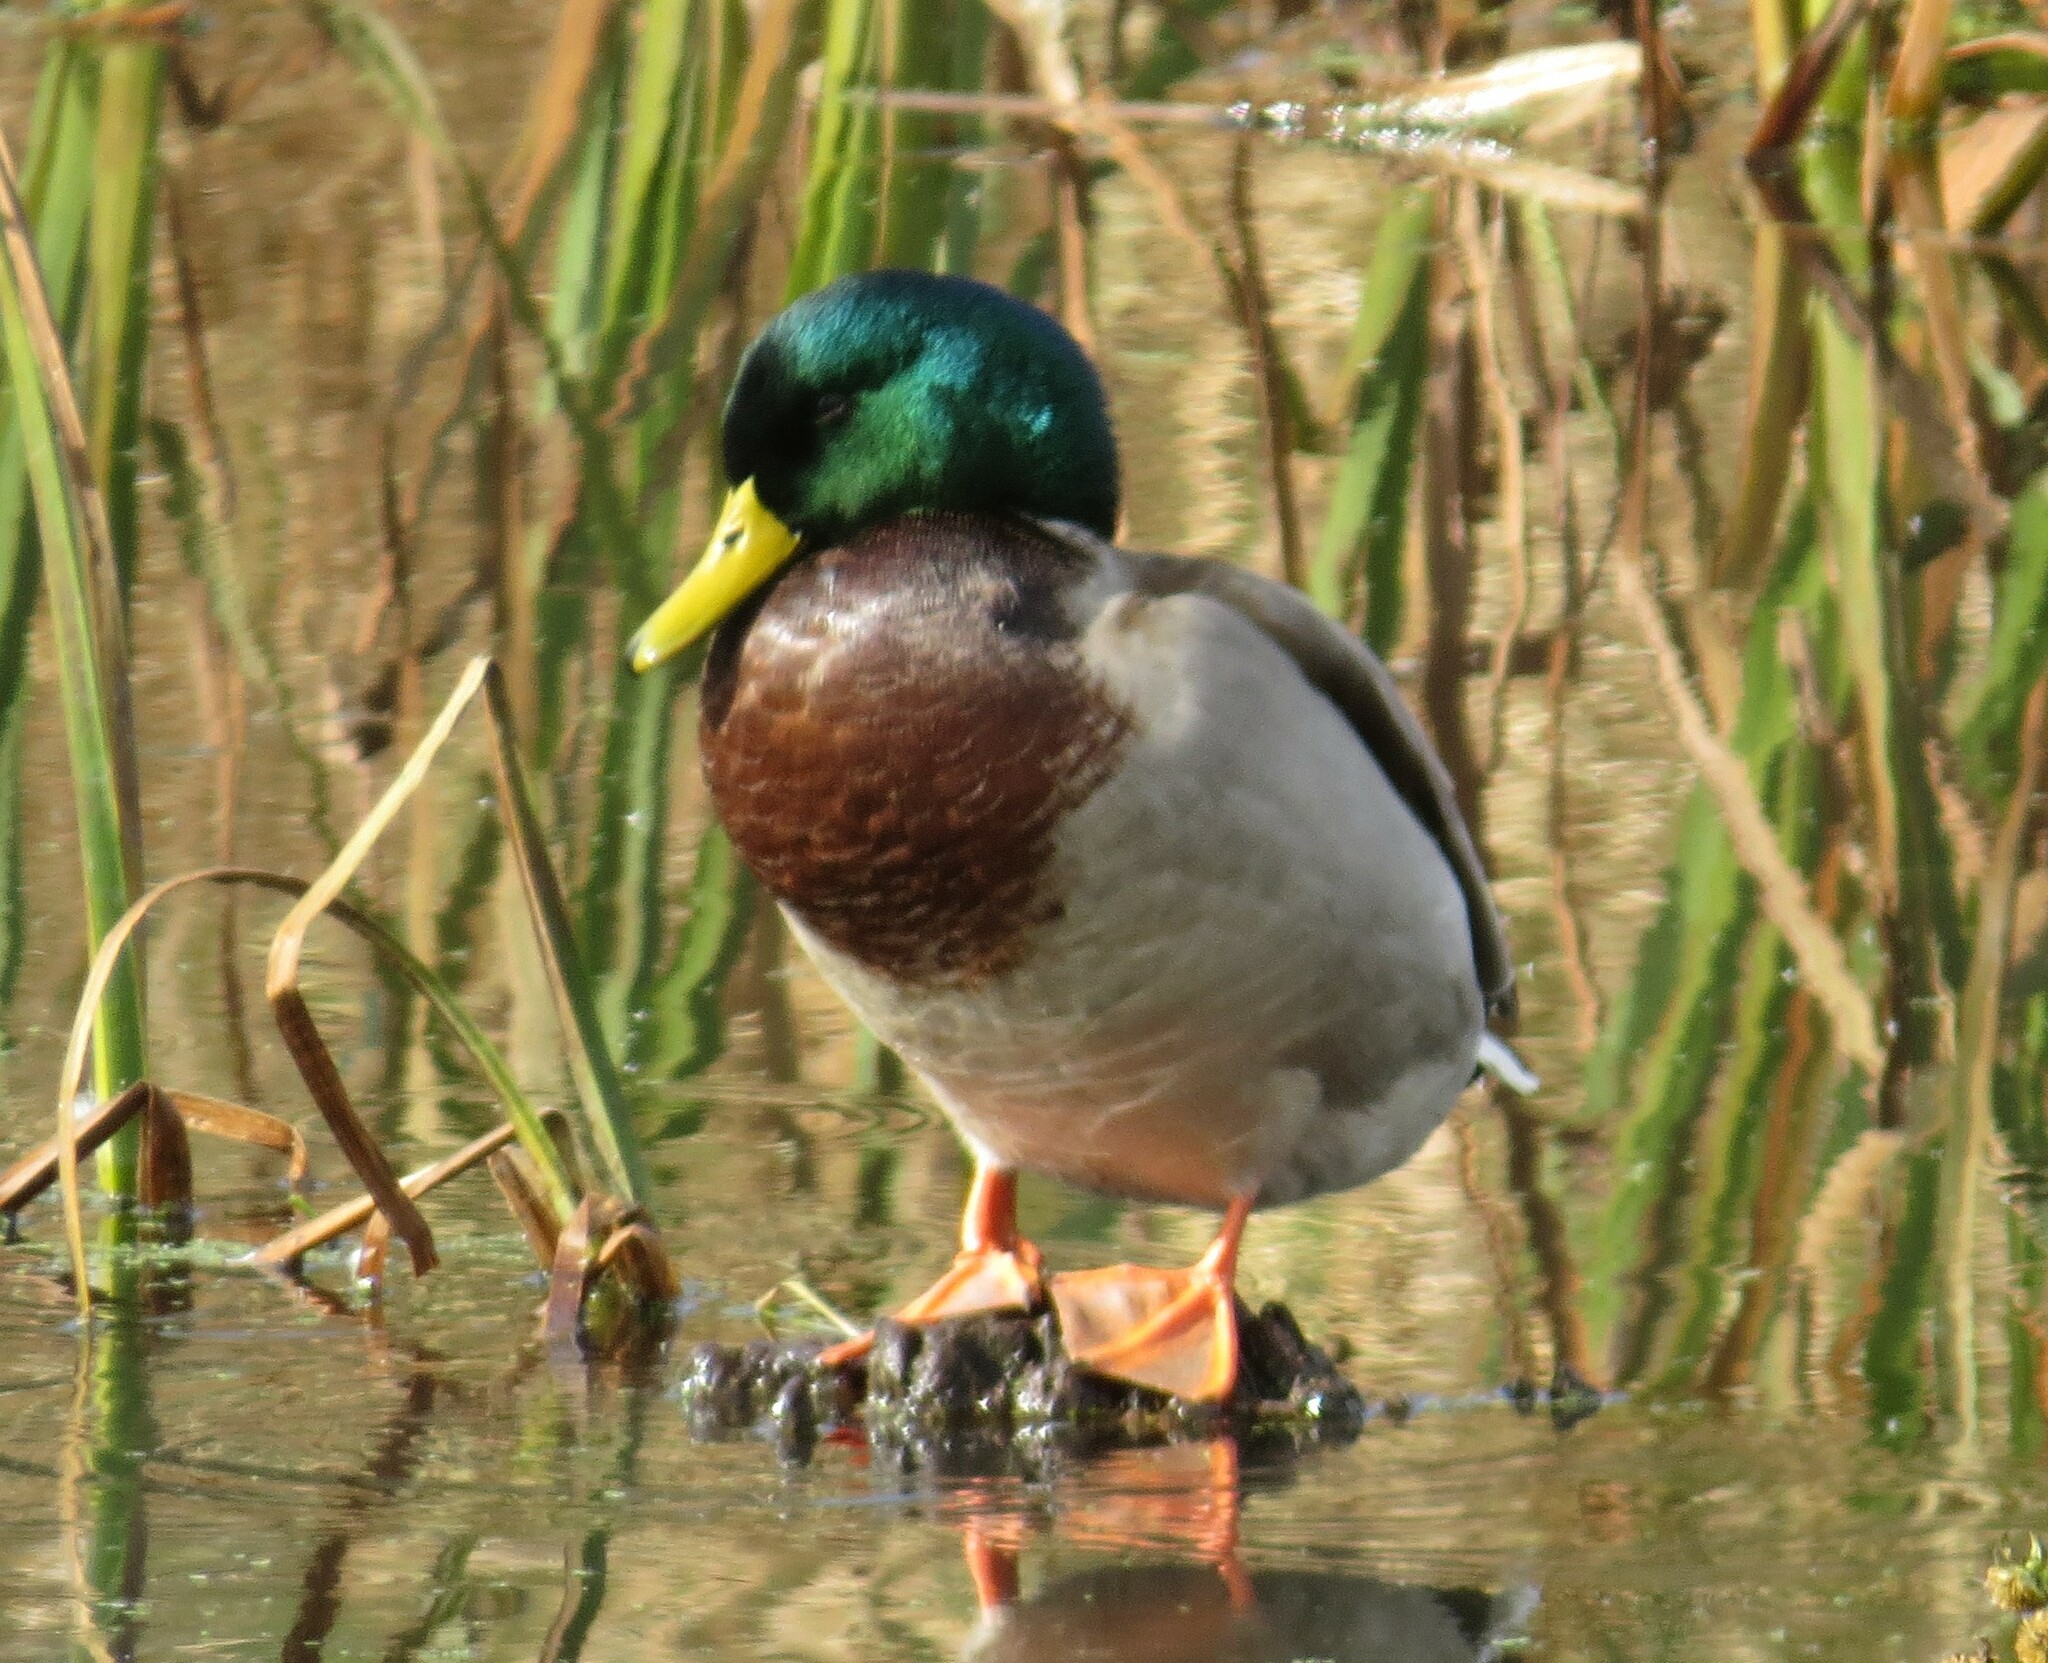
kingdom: Animalia
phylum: Chordata
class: Aves
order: Anseriformes
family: Anatidae
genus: Anas
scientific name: Anas platyrhynchos
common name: Mallard
